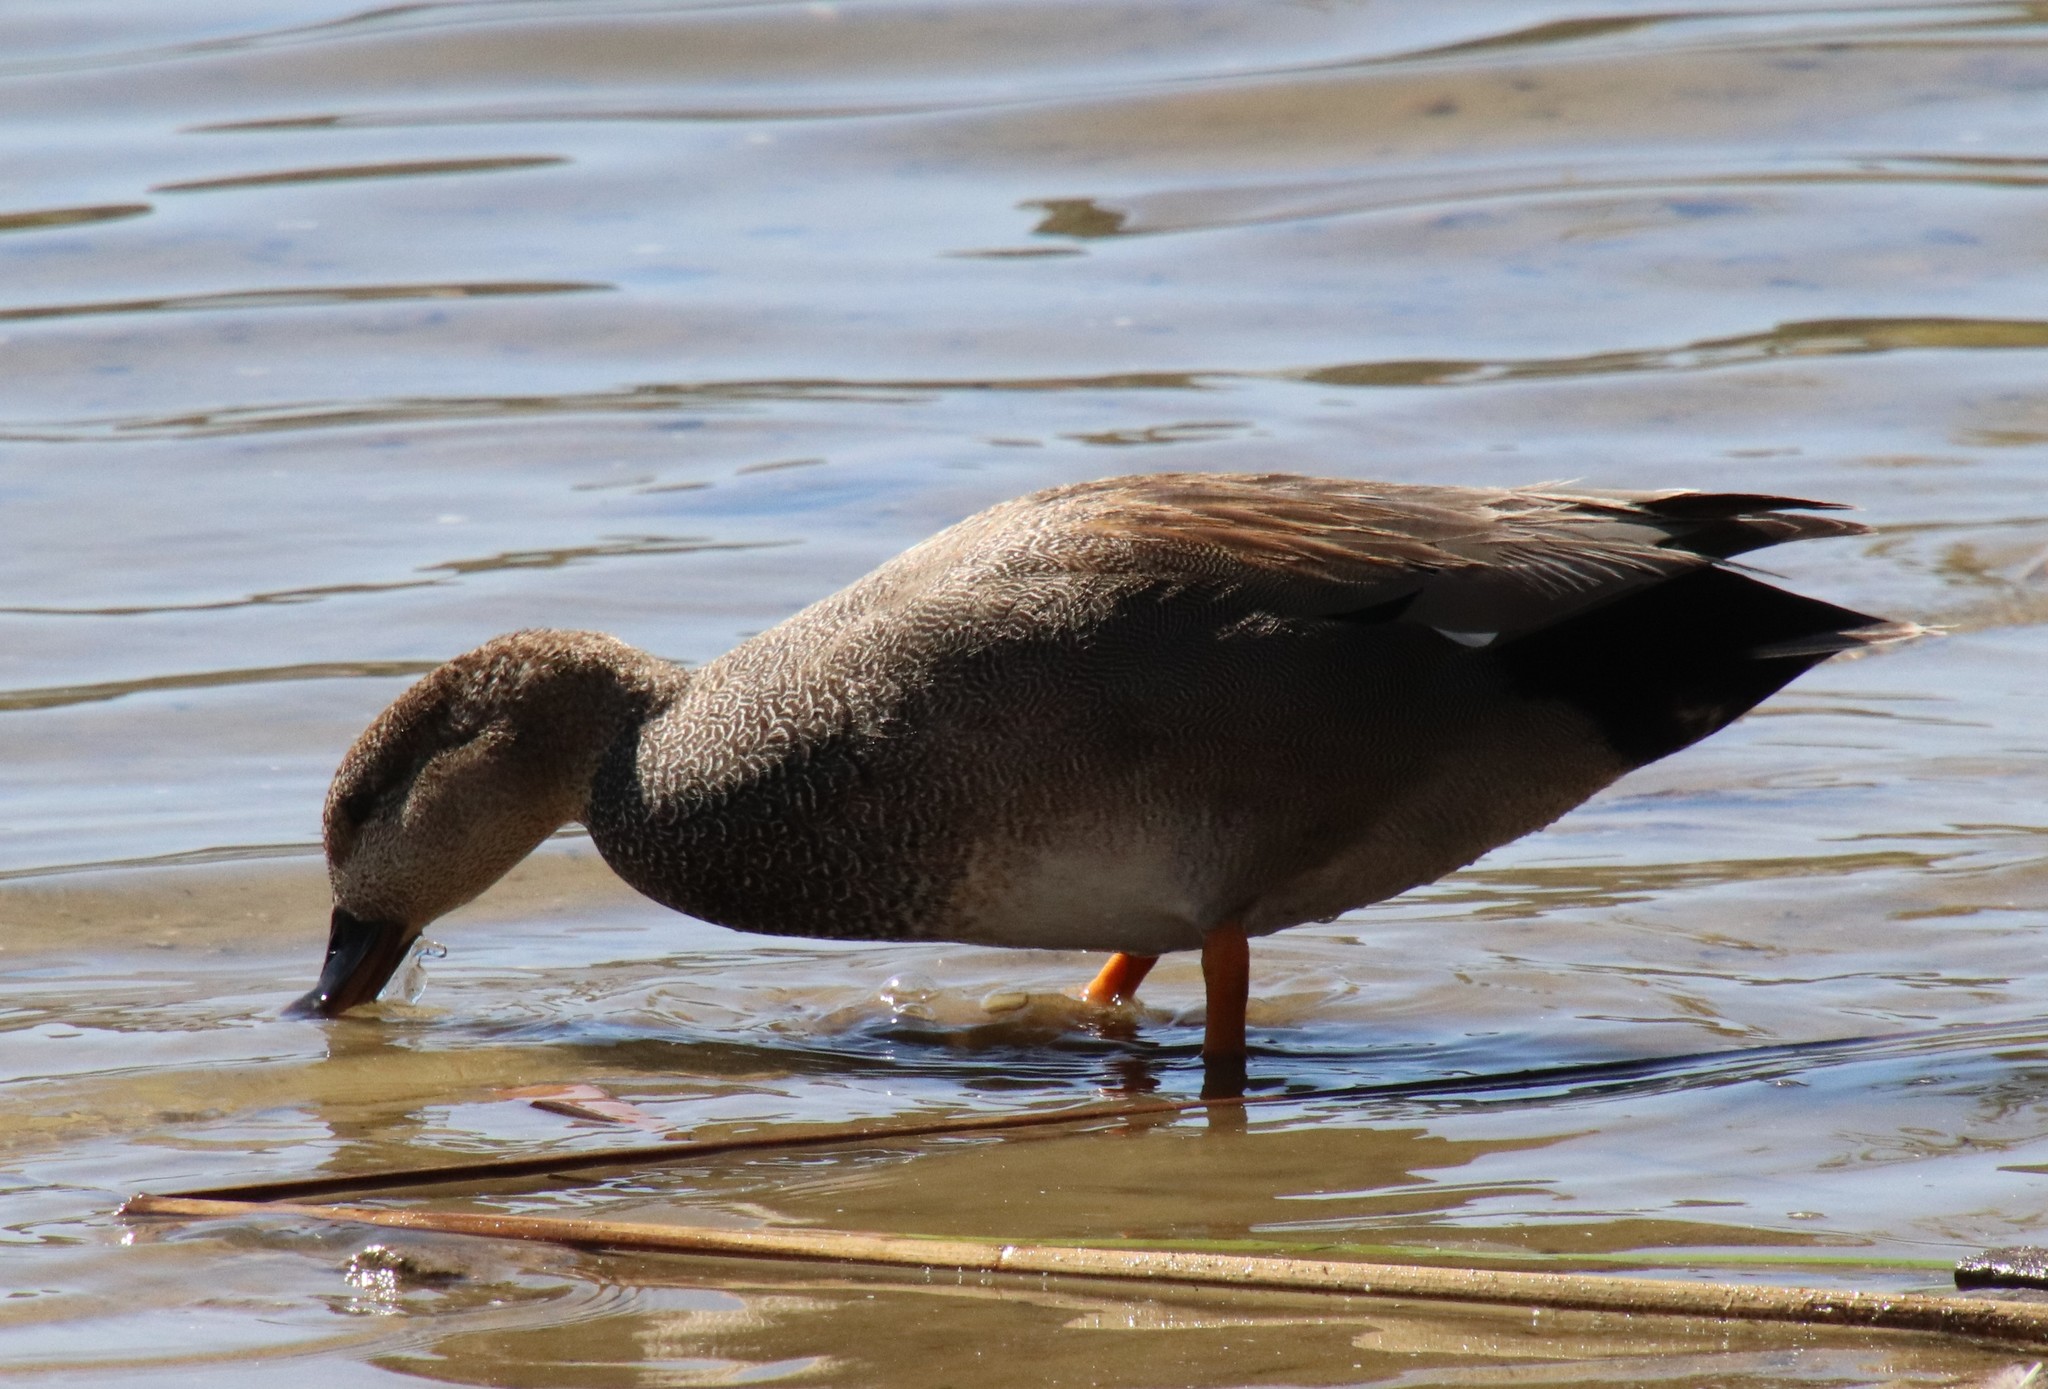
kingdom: Animalia
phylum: Chordata
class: Aves
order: Anseriformes
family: Anatidae
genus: Mareca
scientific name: Mareca strepera
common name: Gadwall
